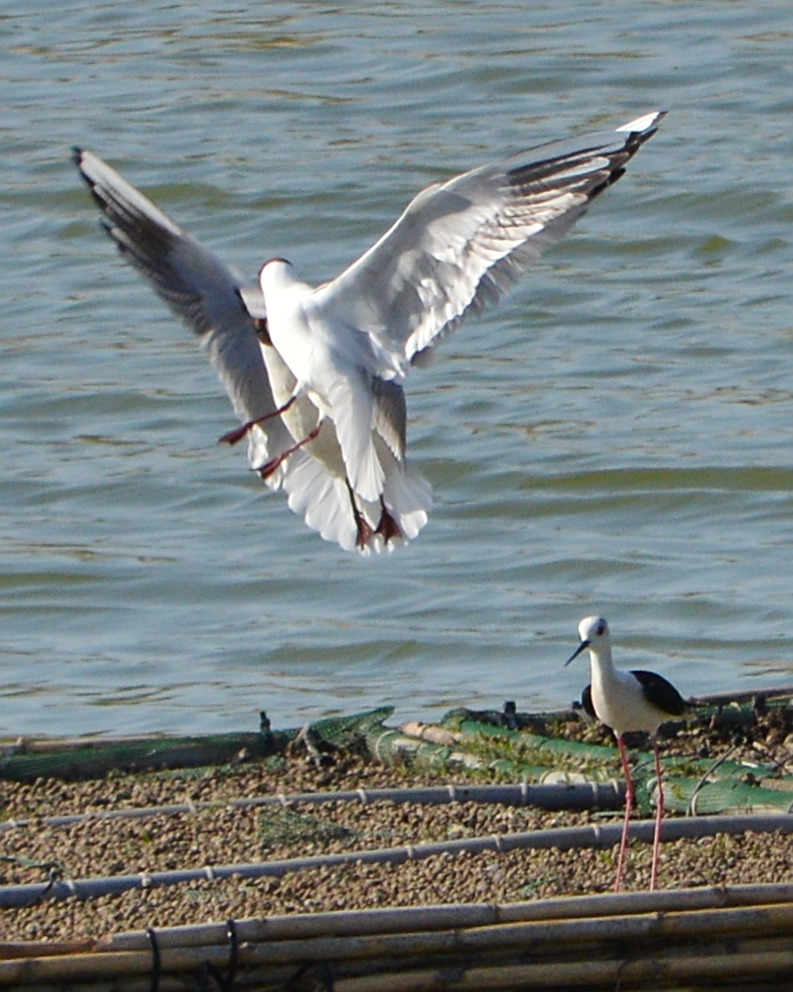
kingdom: Animalia
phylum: Chordata
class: Aves
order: Charadriiformes
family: Recurvirostridae
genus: Himantopus
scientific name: Himantopus himantopus
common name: Black-winged stilt
